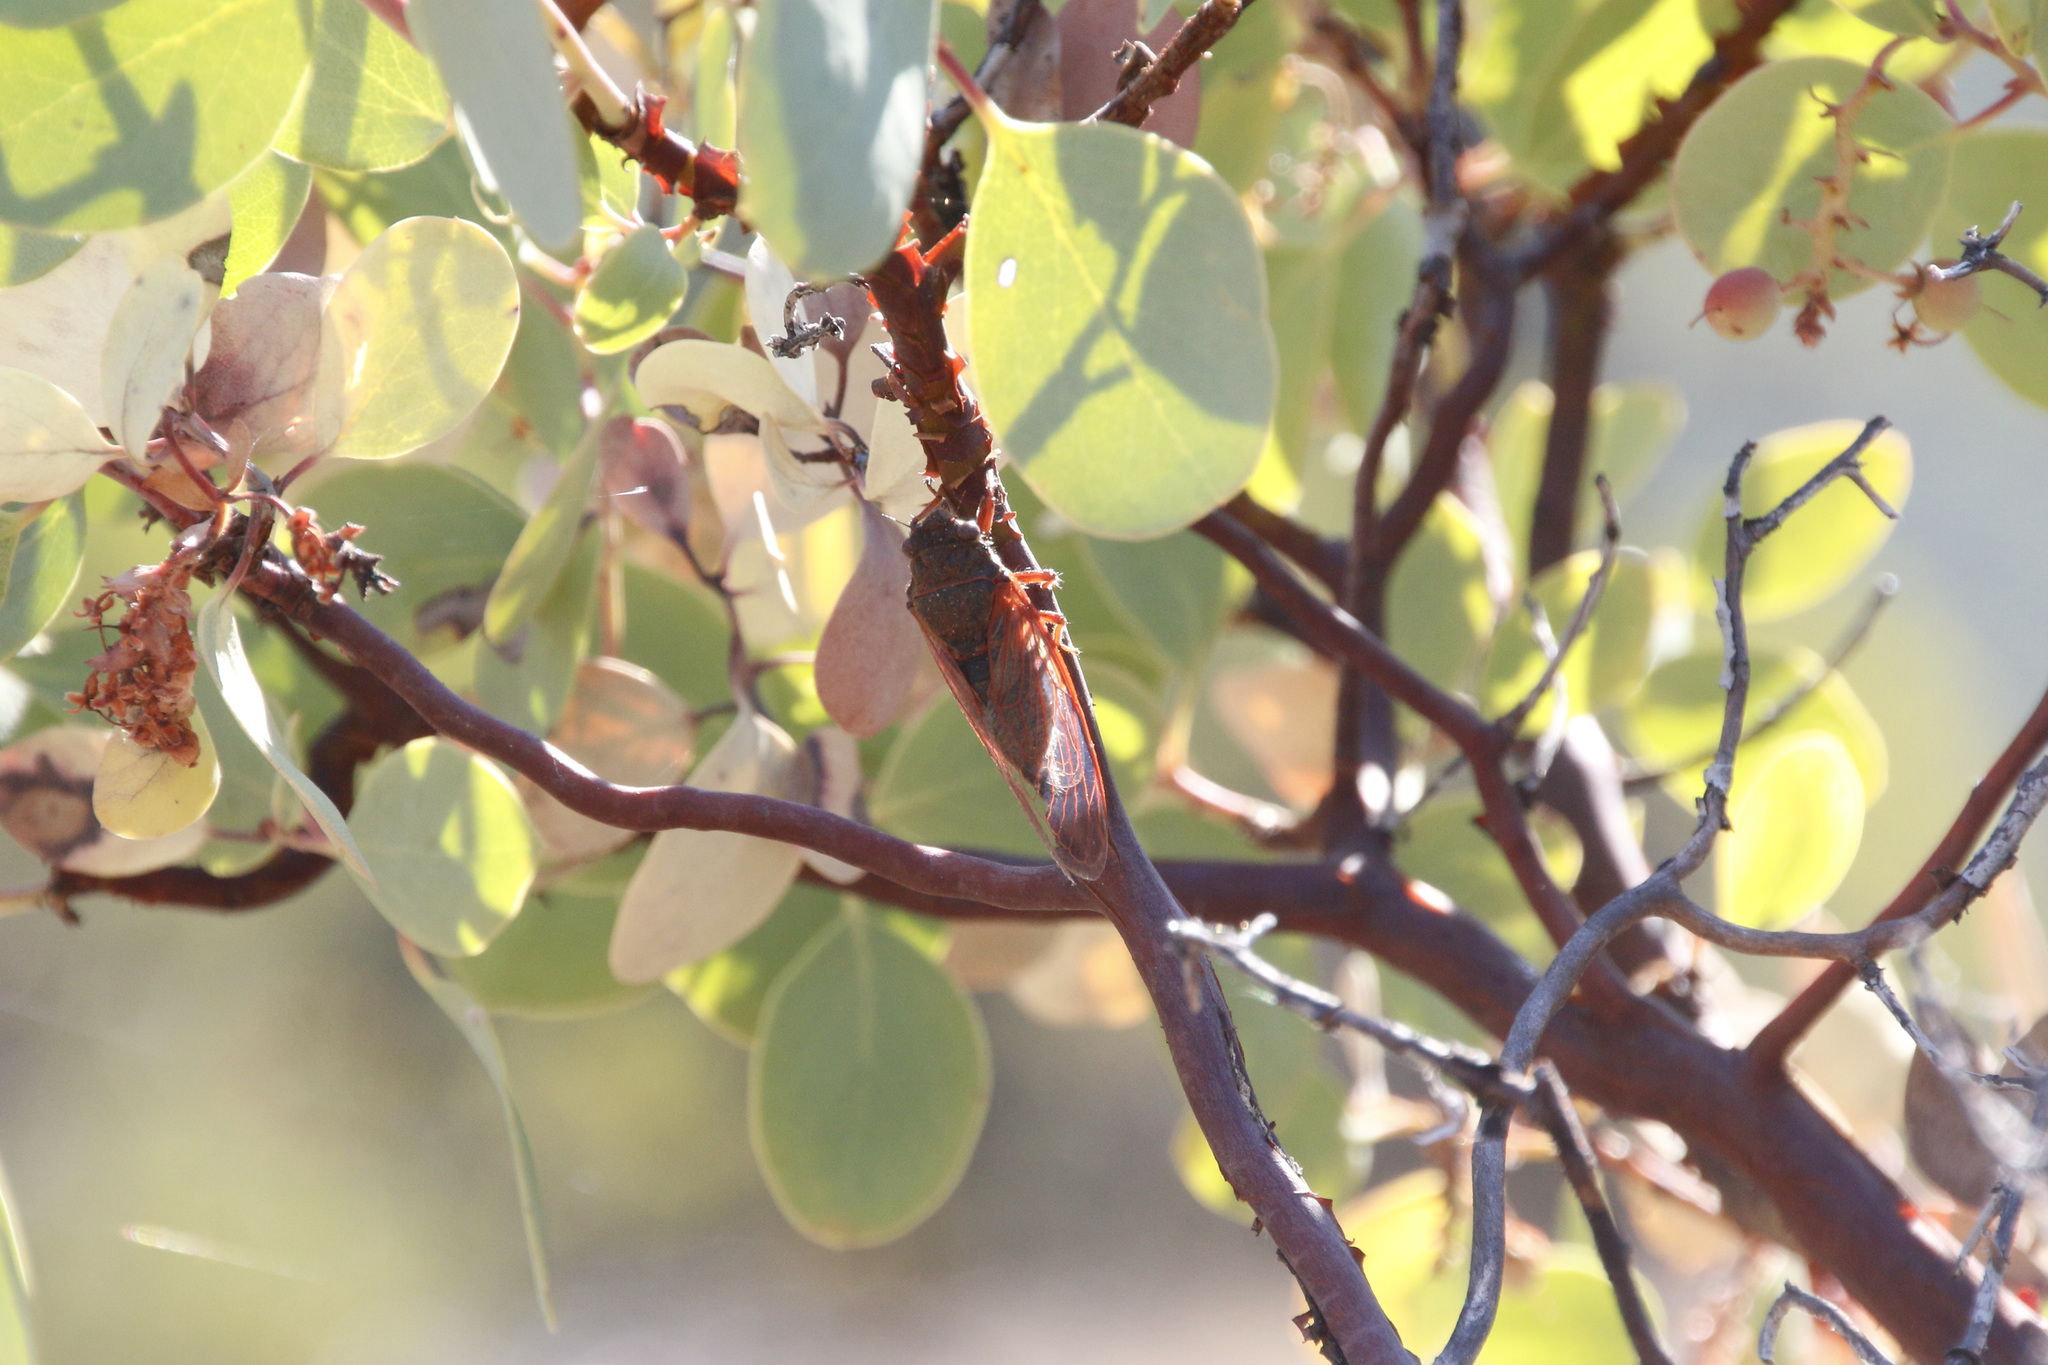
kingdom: Animalia
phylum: Arthropoda
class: Insecta
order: Hemiptera
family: Cicadidae
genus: Tibicinoides
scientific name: Tibicinoides
